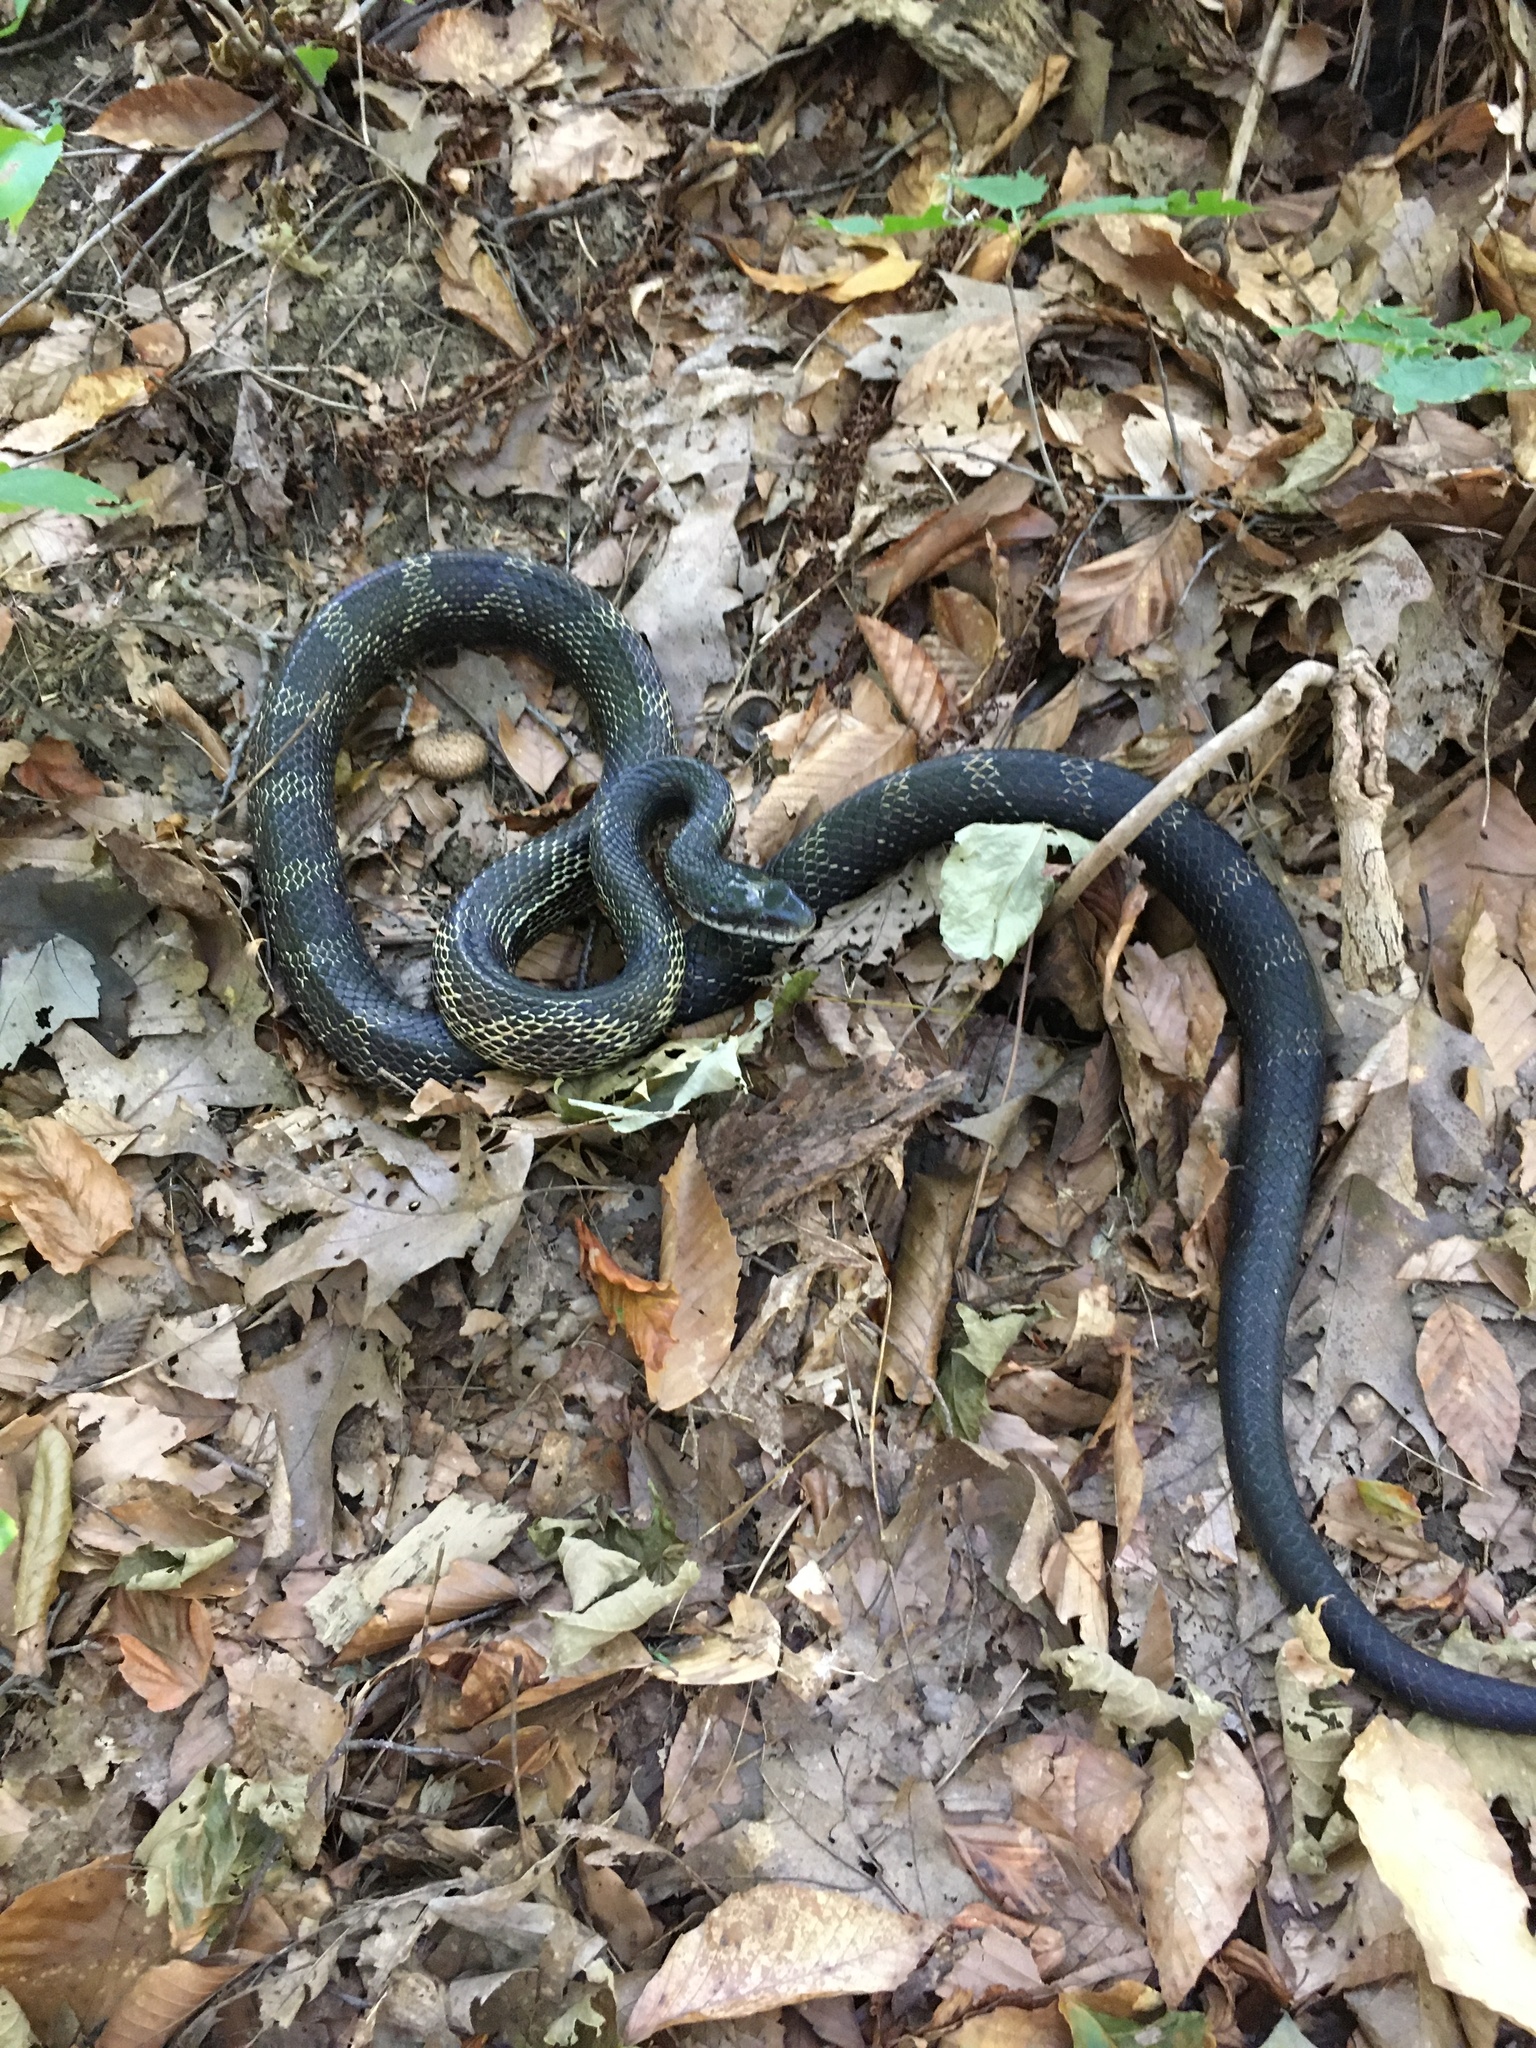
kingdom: Animalia
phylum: Chordata
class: Squamata
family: Colubridae
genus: Pantherophis
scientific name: Pantherophis spiloides
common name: Gray rat snake
